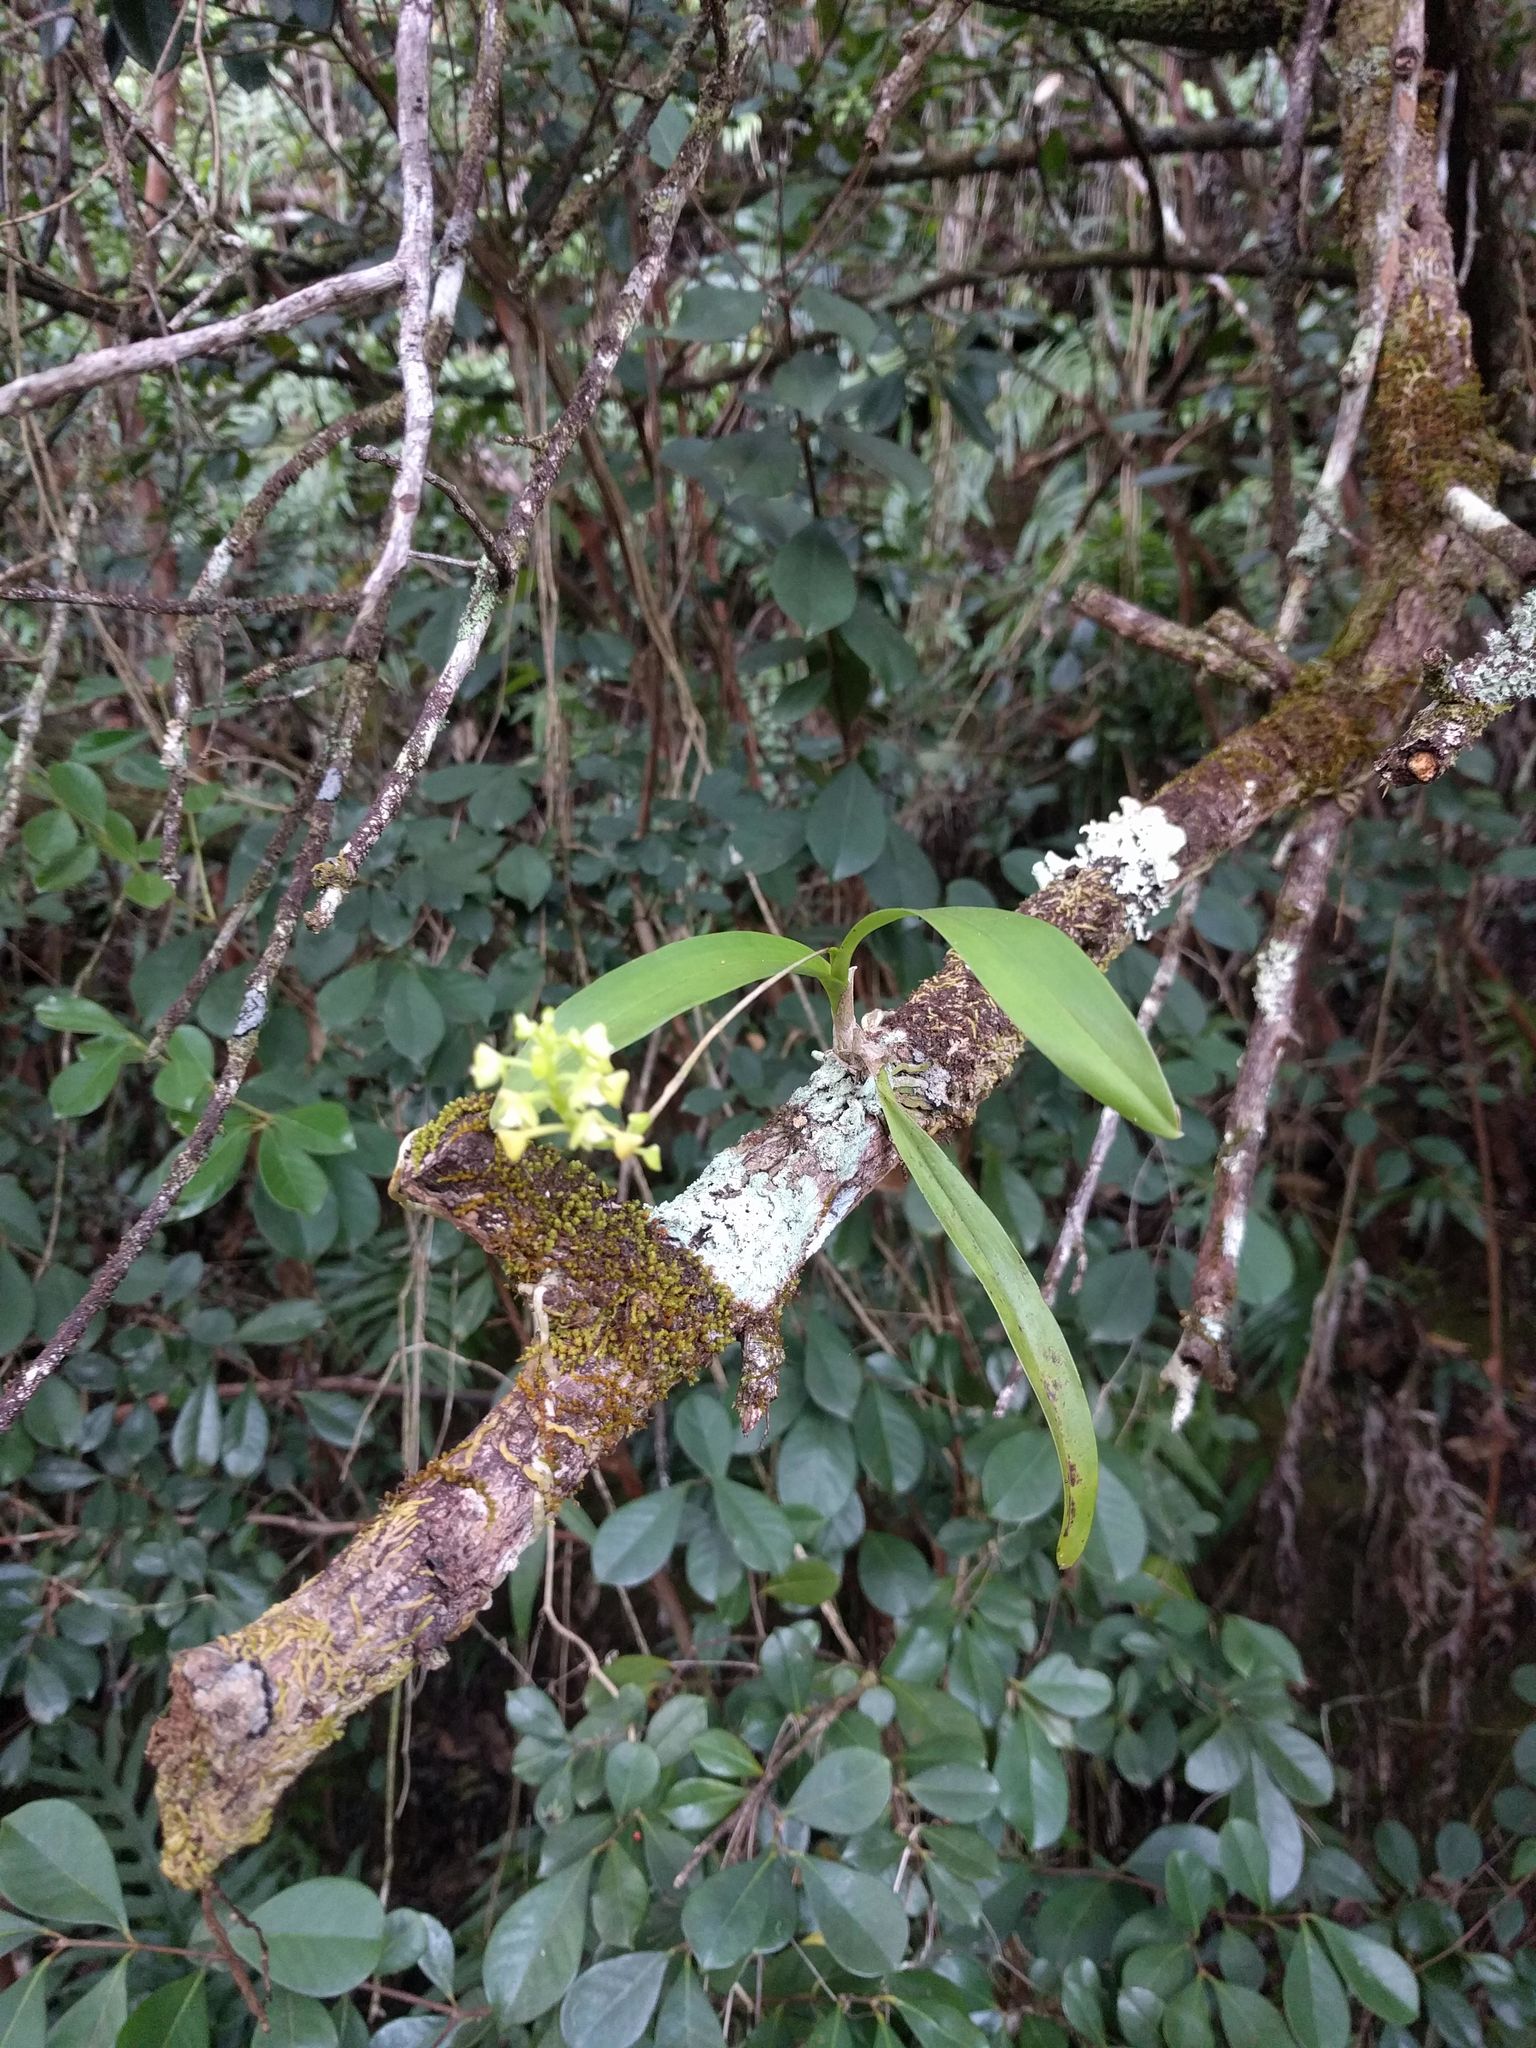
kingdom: Plantae
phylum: Tracheophyta
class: Liliopsida
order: Asparagales
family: Orchidaceae
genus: Polystachya
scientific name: Polystachya concreta
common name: Greater yellowspike orchid
